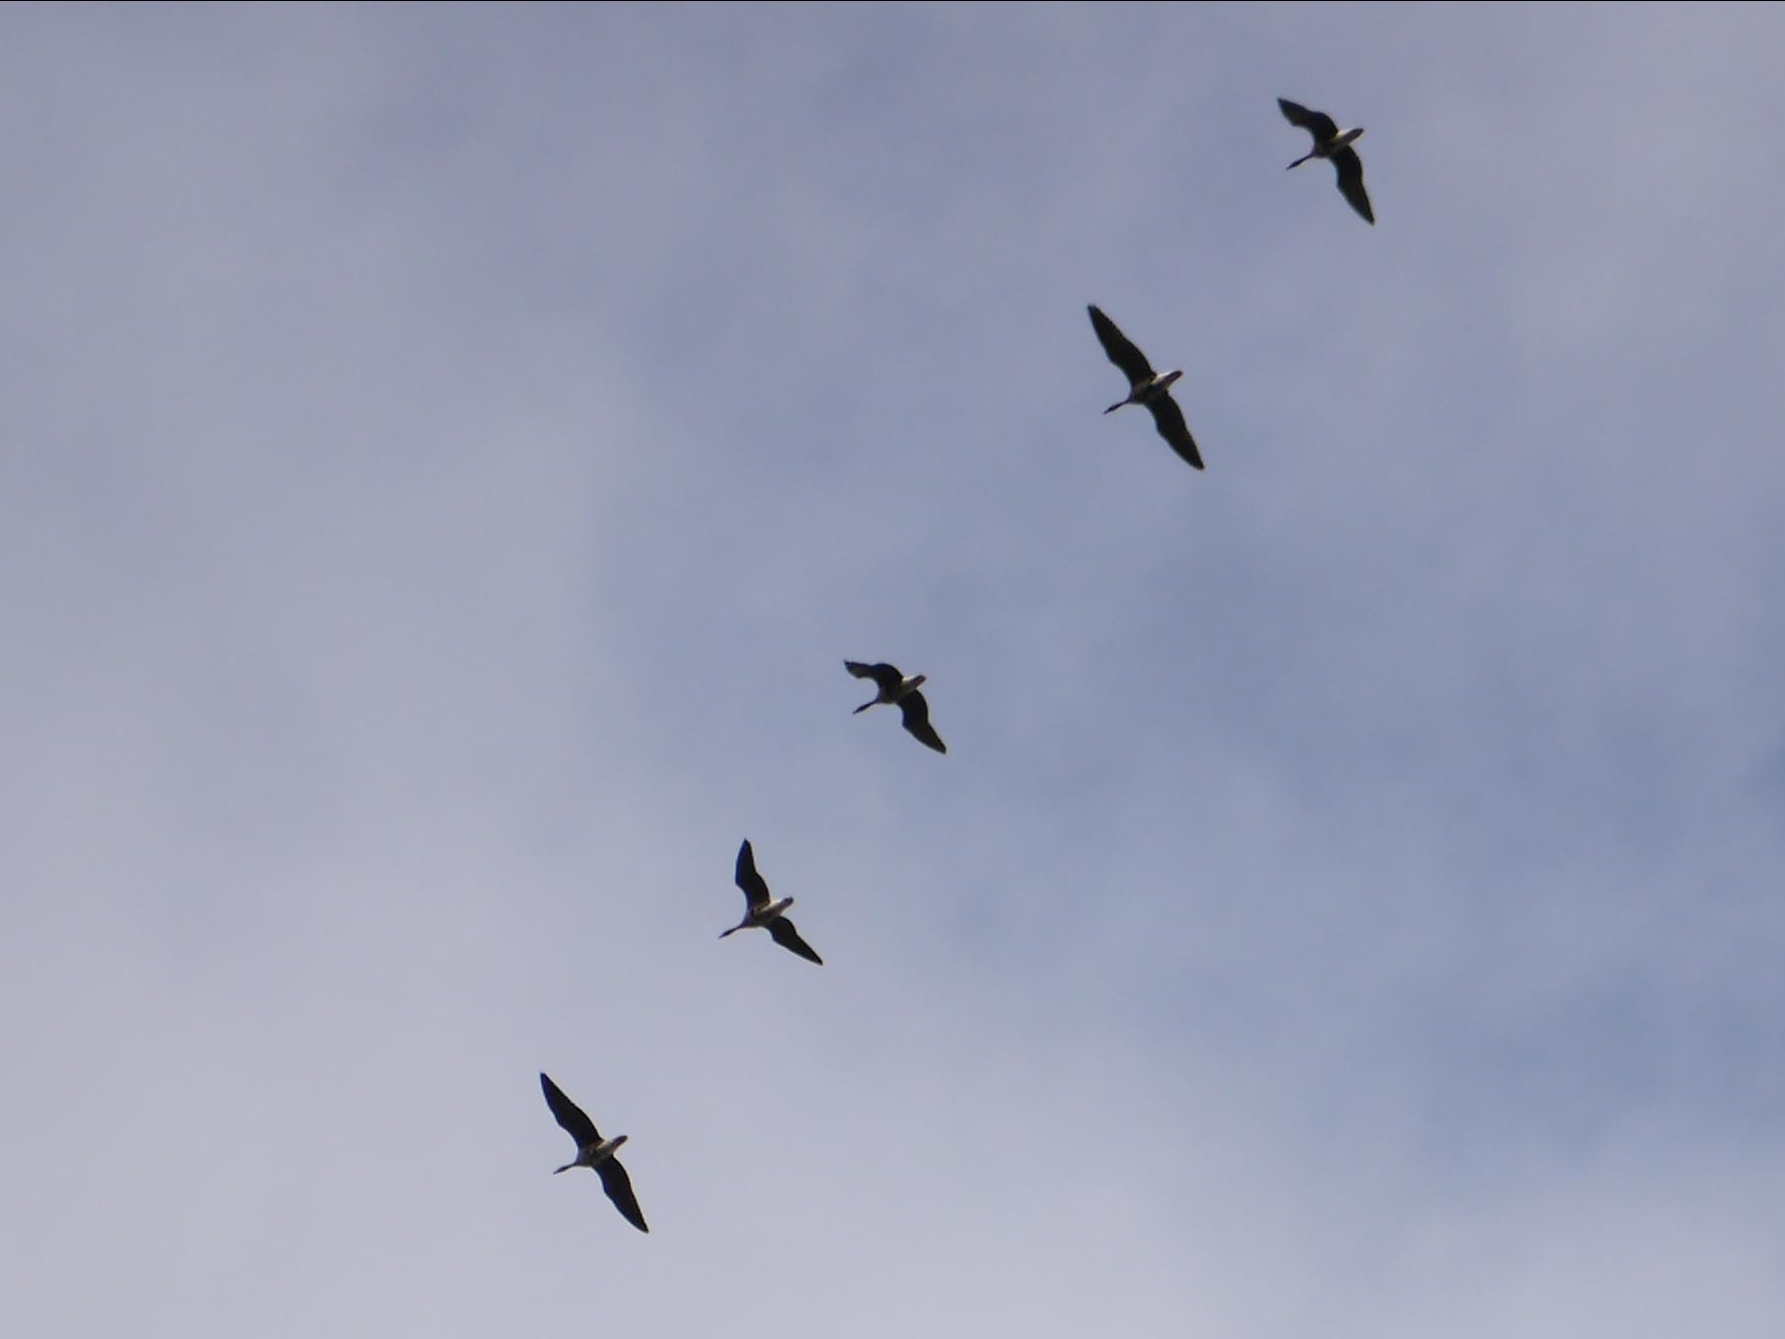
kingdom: Animalia
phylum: Chordata
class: Aves
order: Anseriformes
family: Anatidae
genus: Anser
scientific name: Anser albifrons
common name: Greater white-fronted goose
